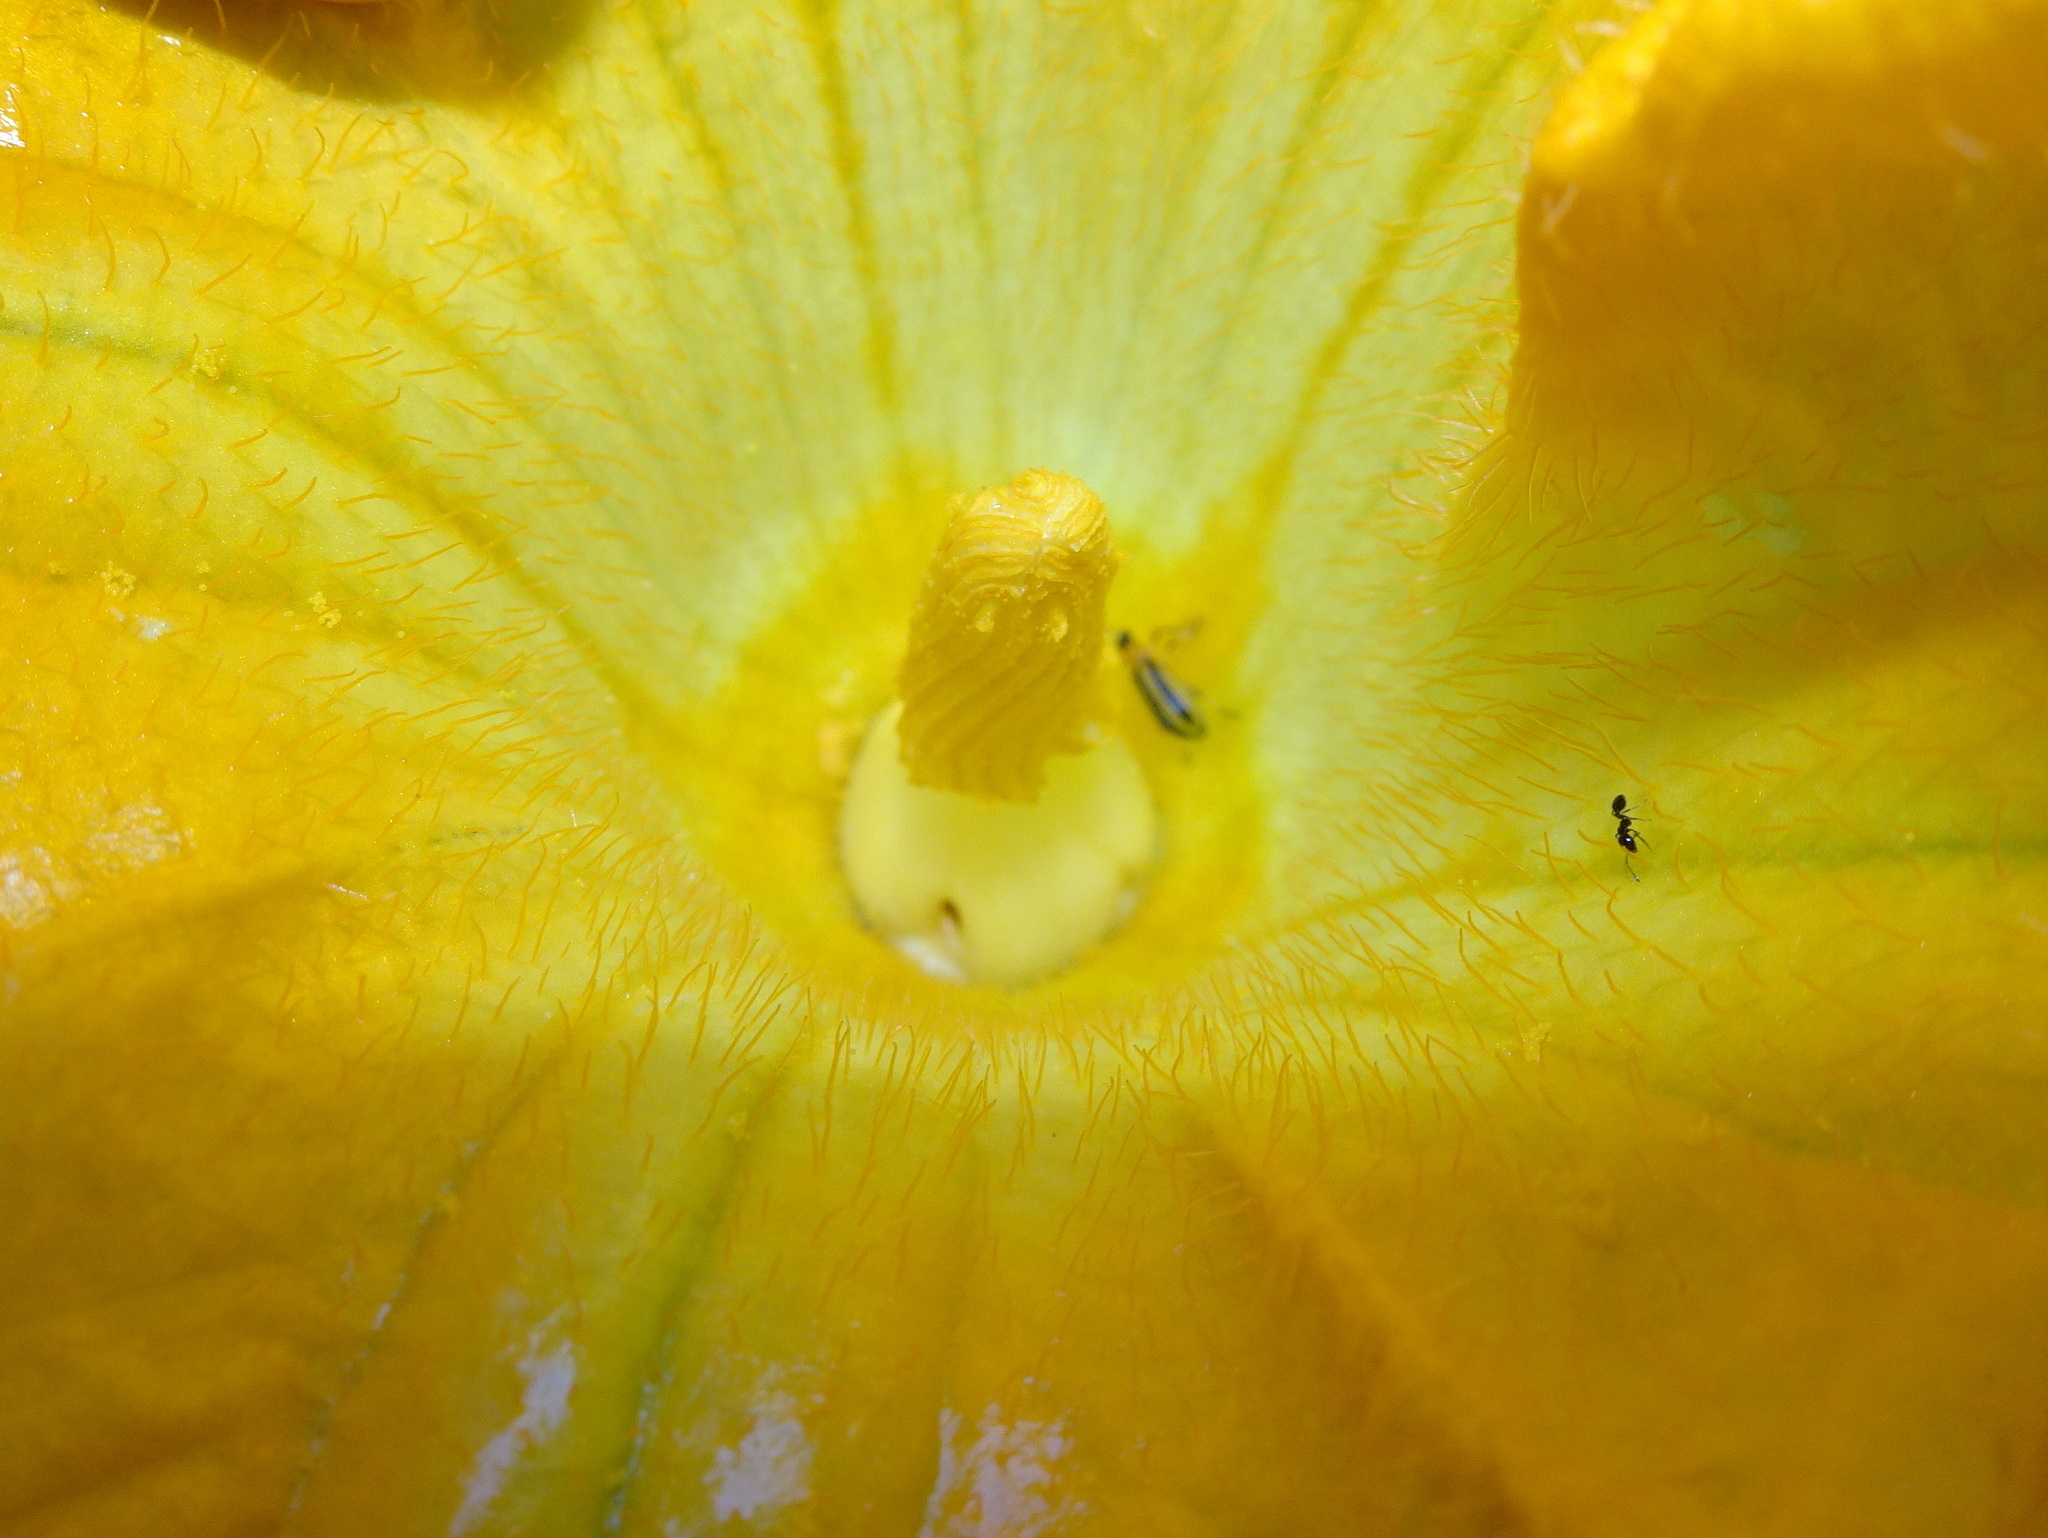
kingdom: Animalia
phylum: Arthropoda
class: Insecta
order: Coleoptera
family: Chrysomelidae
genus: Acalymma
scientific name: Acalymma vittatum
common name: Striped cucumber beetle
